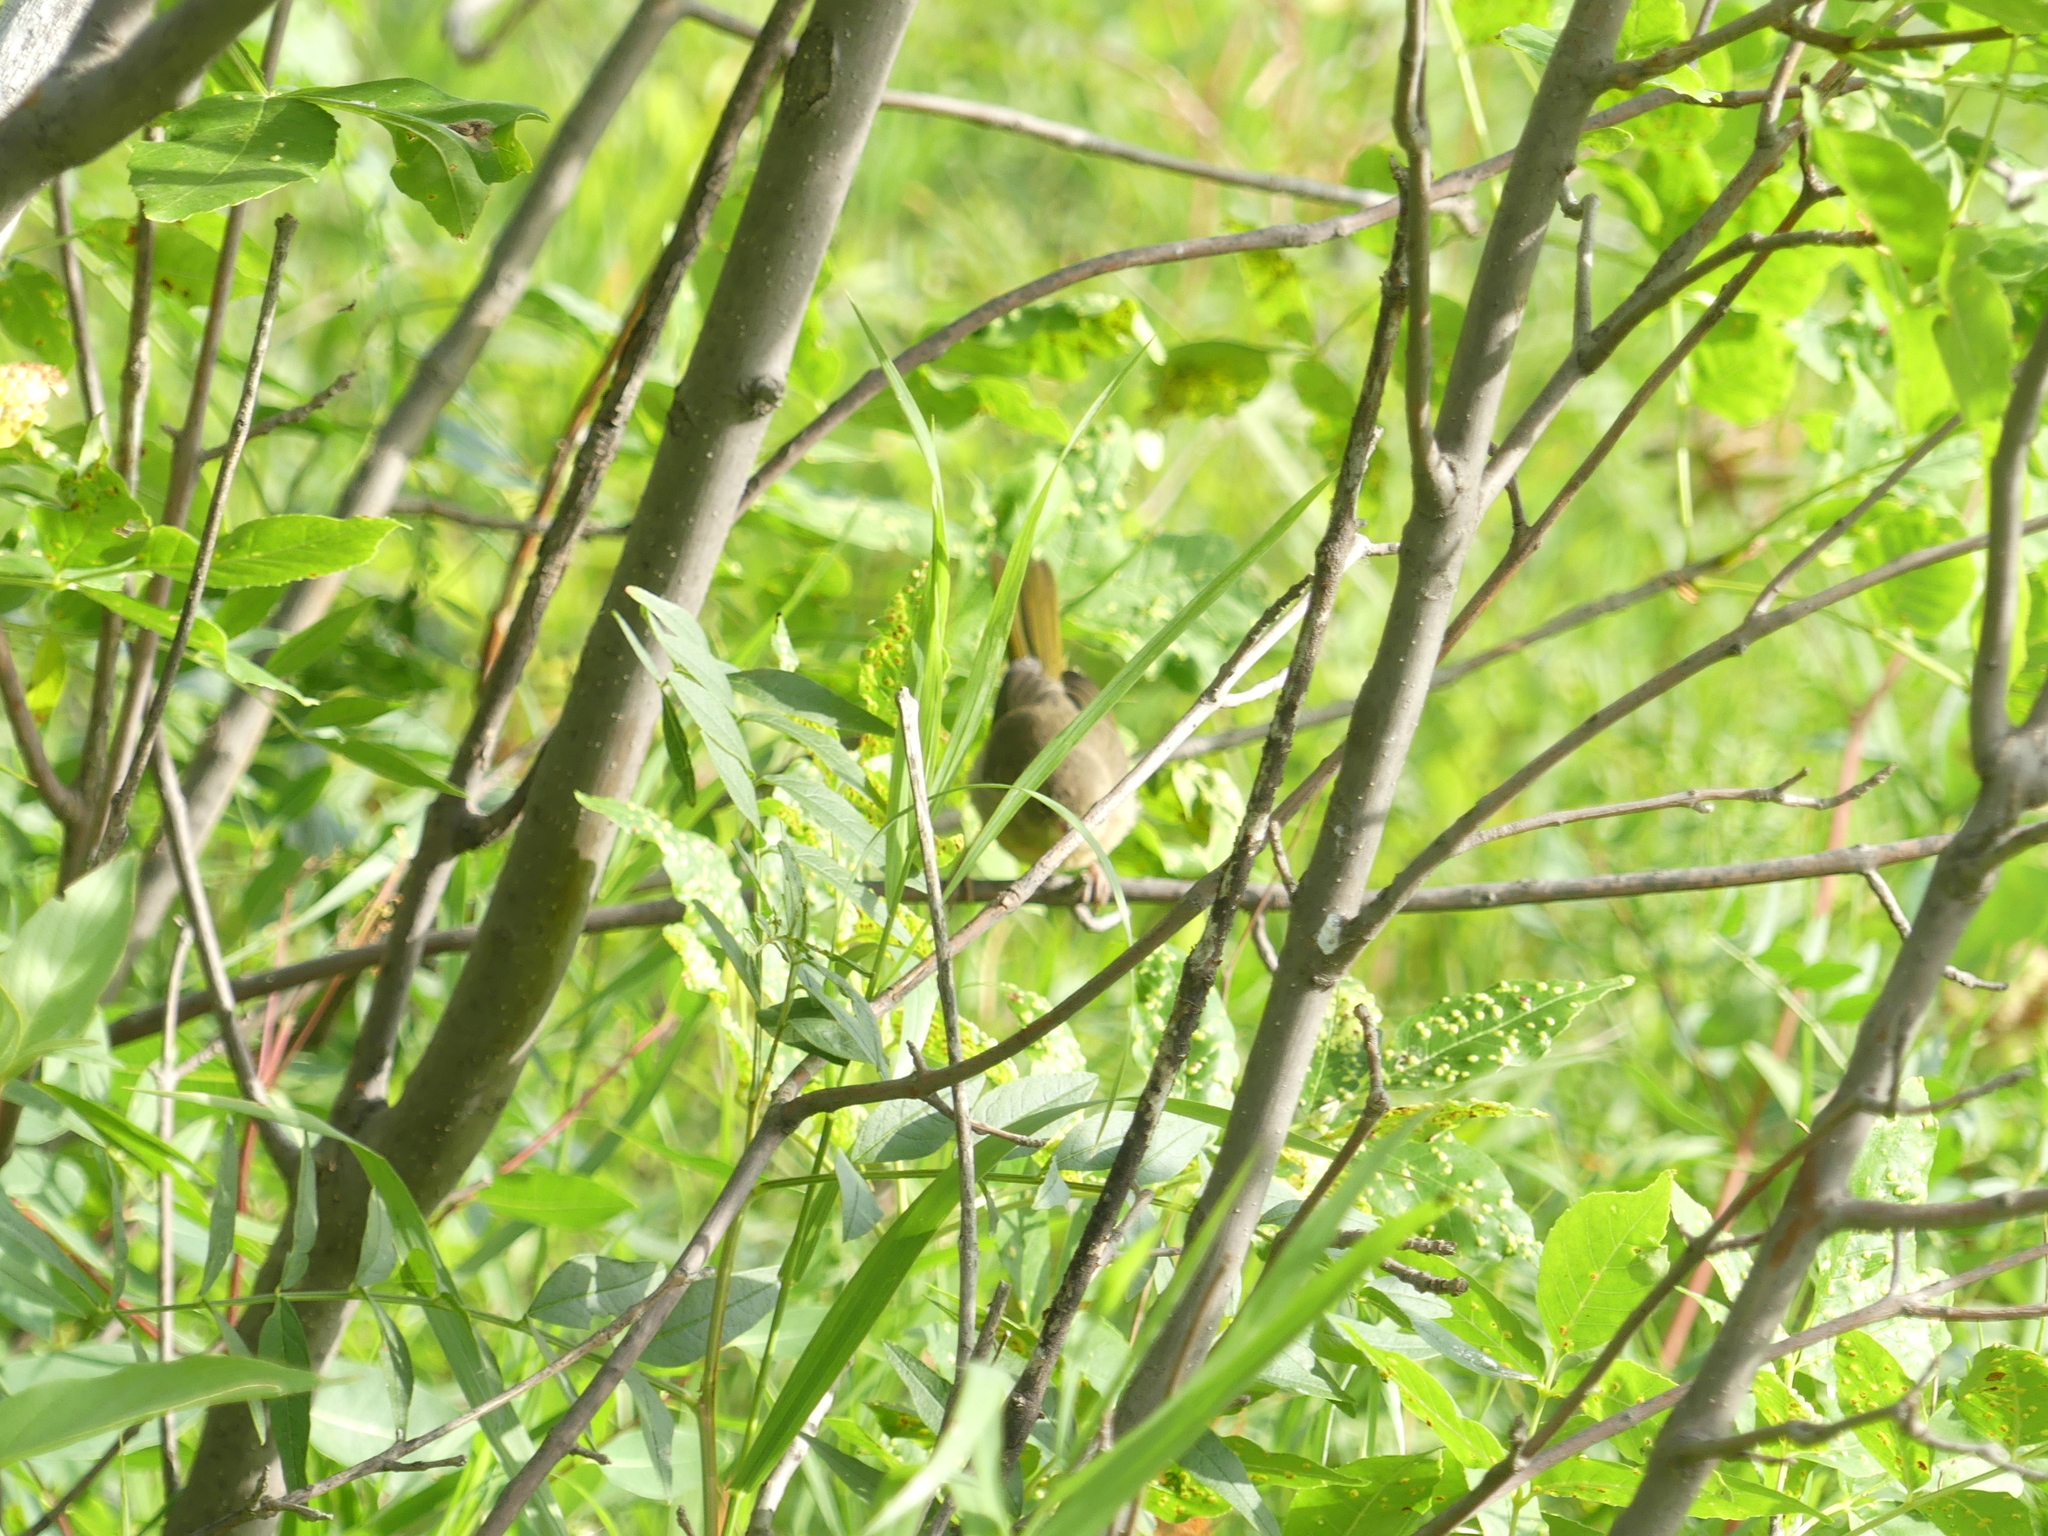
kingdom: Animalia
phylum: Chordata
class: Aves
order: Passeriformes
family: Parulidae
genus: Geothlypis
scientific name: Geothlypis trichas
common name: Common yellowthroat
